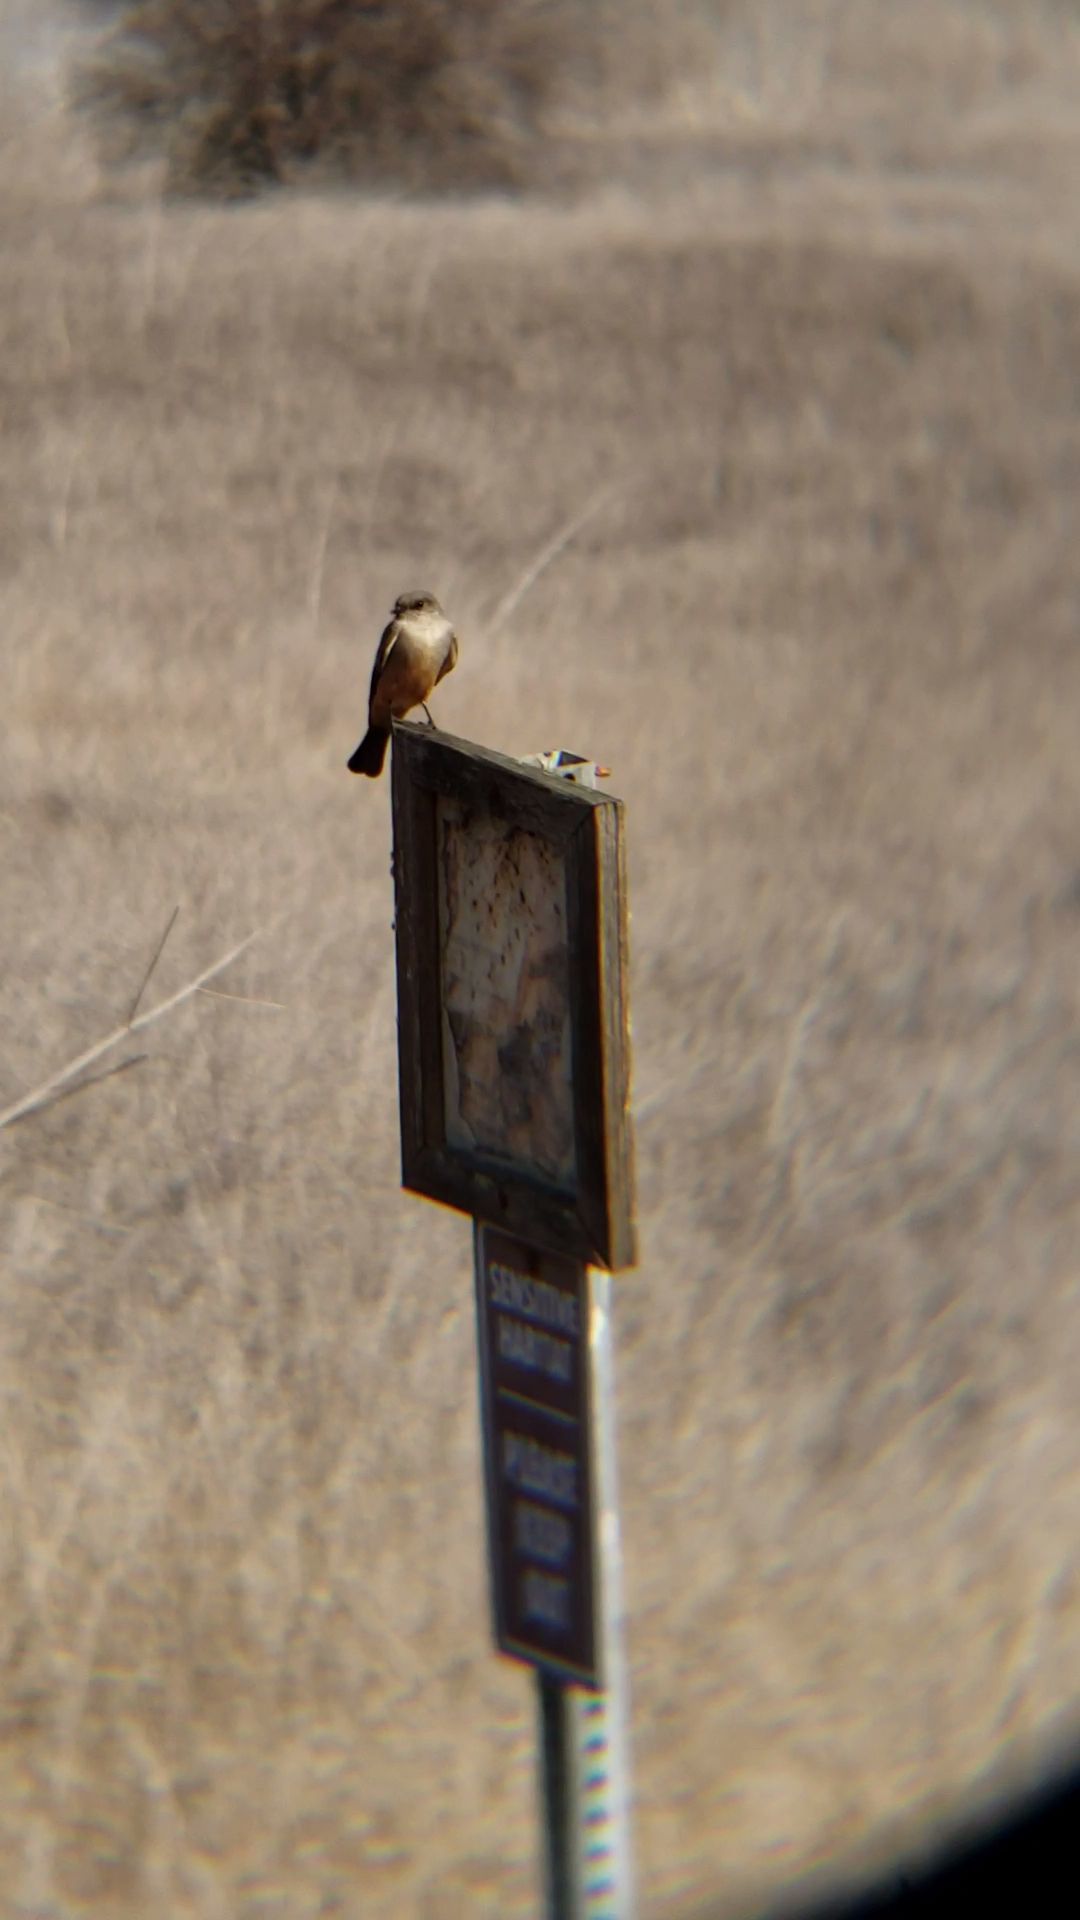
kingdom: Animalia
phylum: Chordata
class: Aves
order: Passeriformes
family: Tyrannidae
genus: Sayornis
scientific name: Sayornis saya
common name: Say's phoebe
